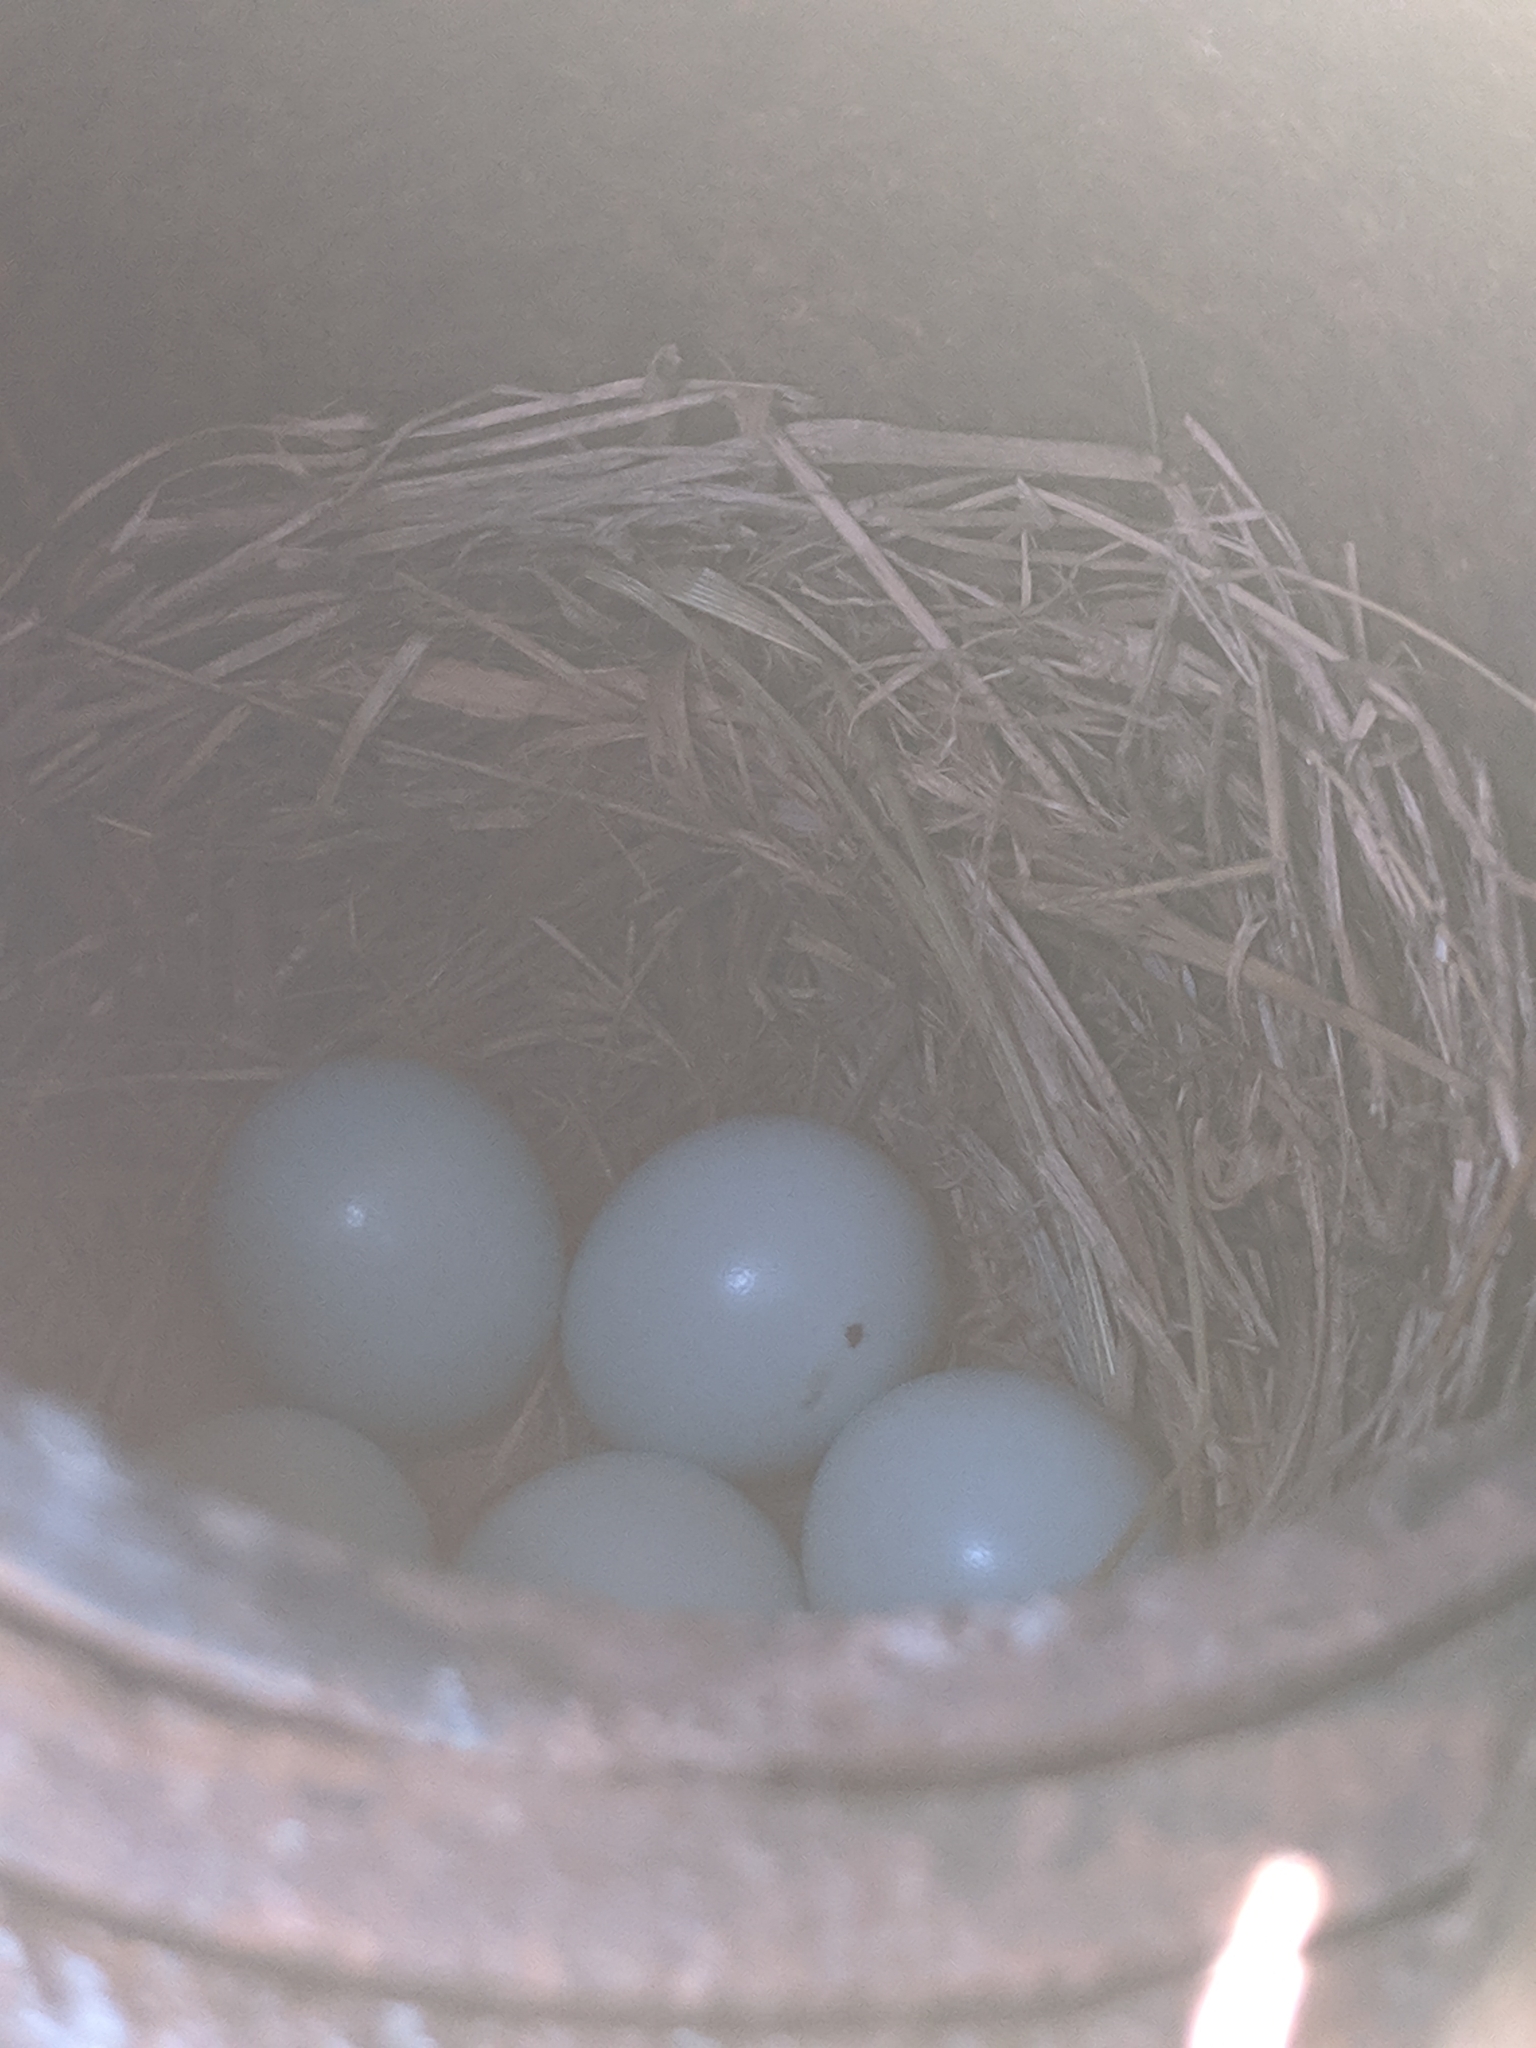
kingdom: Animalia
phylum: Chordata
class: Aves
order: Passeriformes
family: Turdidae
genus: Sialia
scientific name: Sialia sialis
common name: Eastern bluebird
